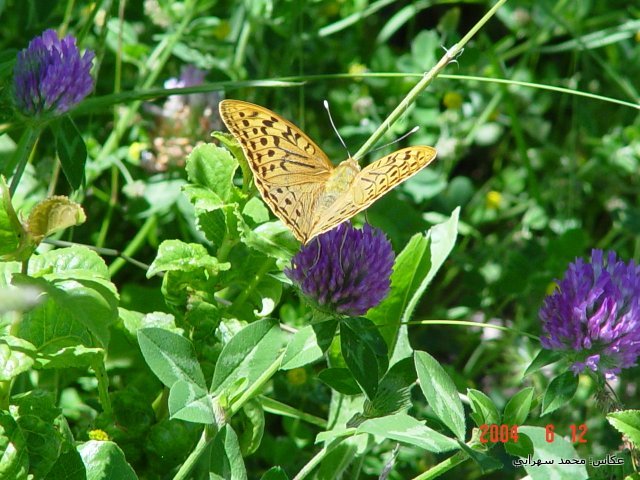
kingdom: Animalia
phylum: Arthropoda
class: Insecta
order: Lepidoptera
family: Nymphalidae
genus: Damora
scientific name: Damora pandora
